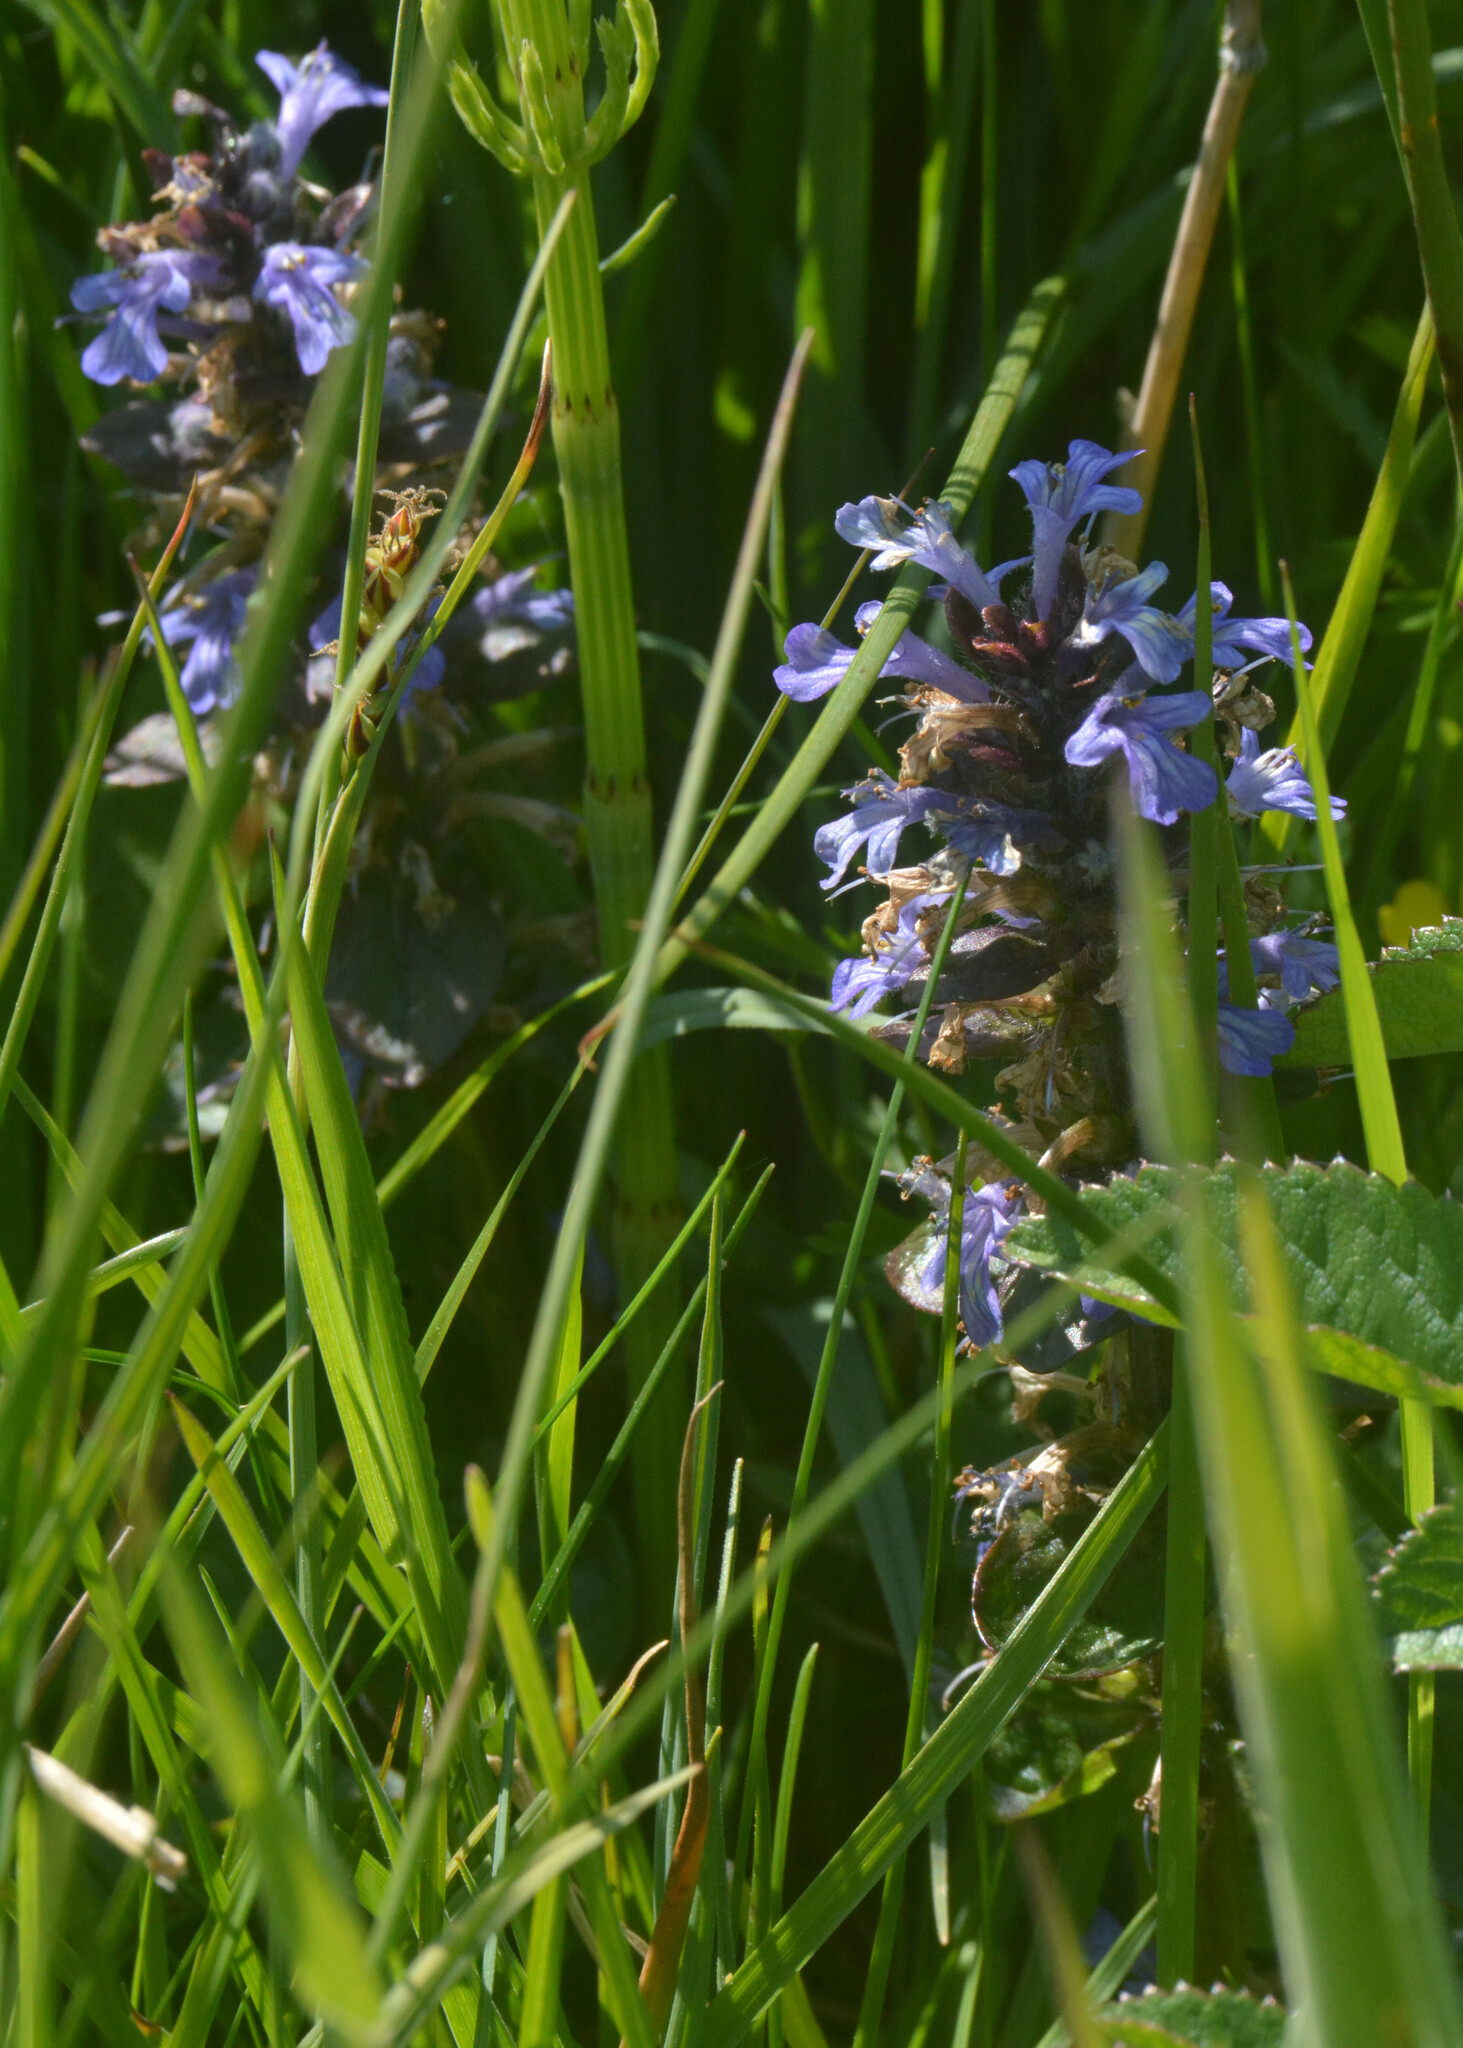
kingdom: Plantae
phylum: Tracheophyta
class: Magnoliopsida
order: Lamiales
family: Lamiaceae
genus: Ajuga
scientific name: Ajuga reptans
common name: Bugle
